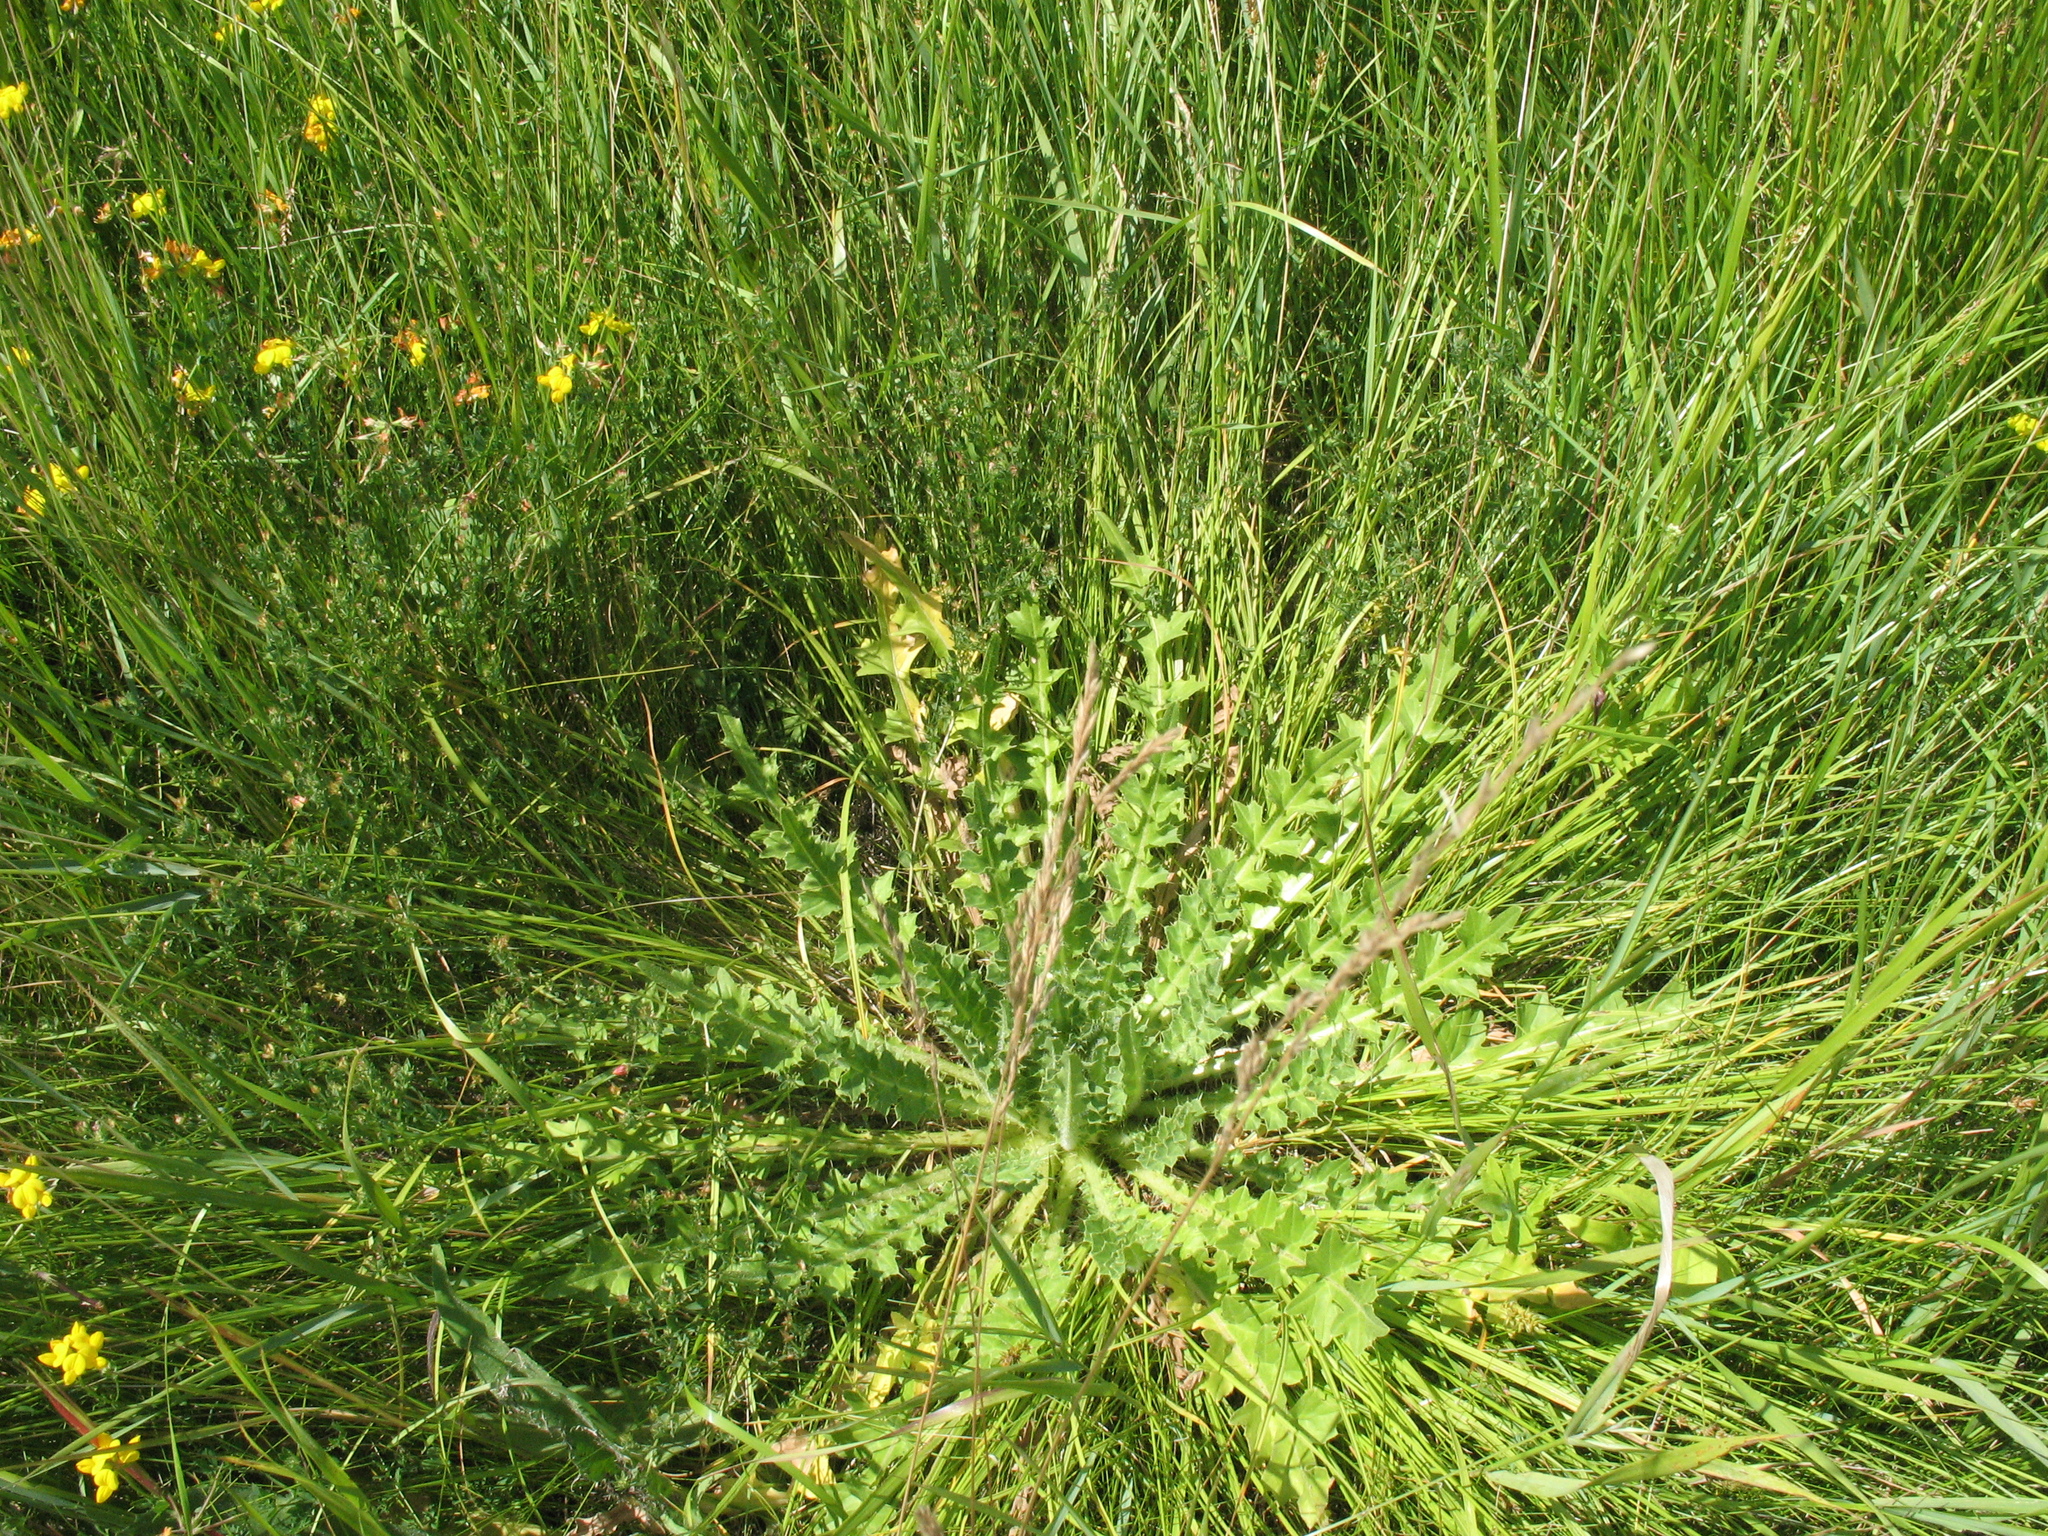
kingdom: Plantae
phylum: Tracheophyta
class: Magnoliopsida
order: Asterales
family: Asteraceae
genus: Cirsium
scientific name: Cirsium esculentum
